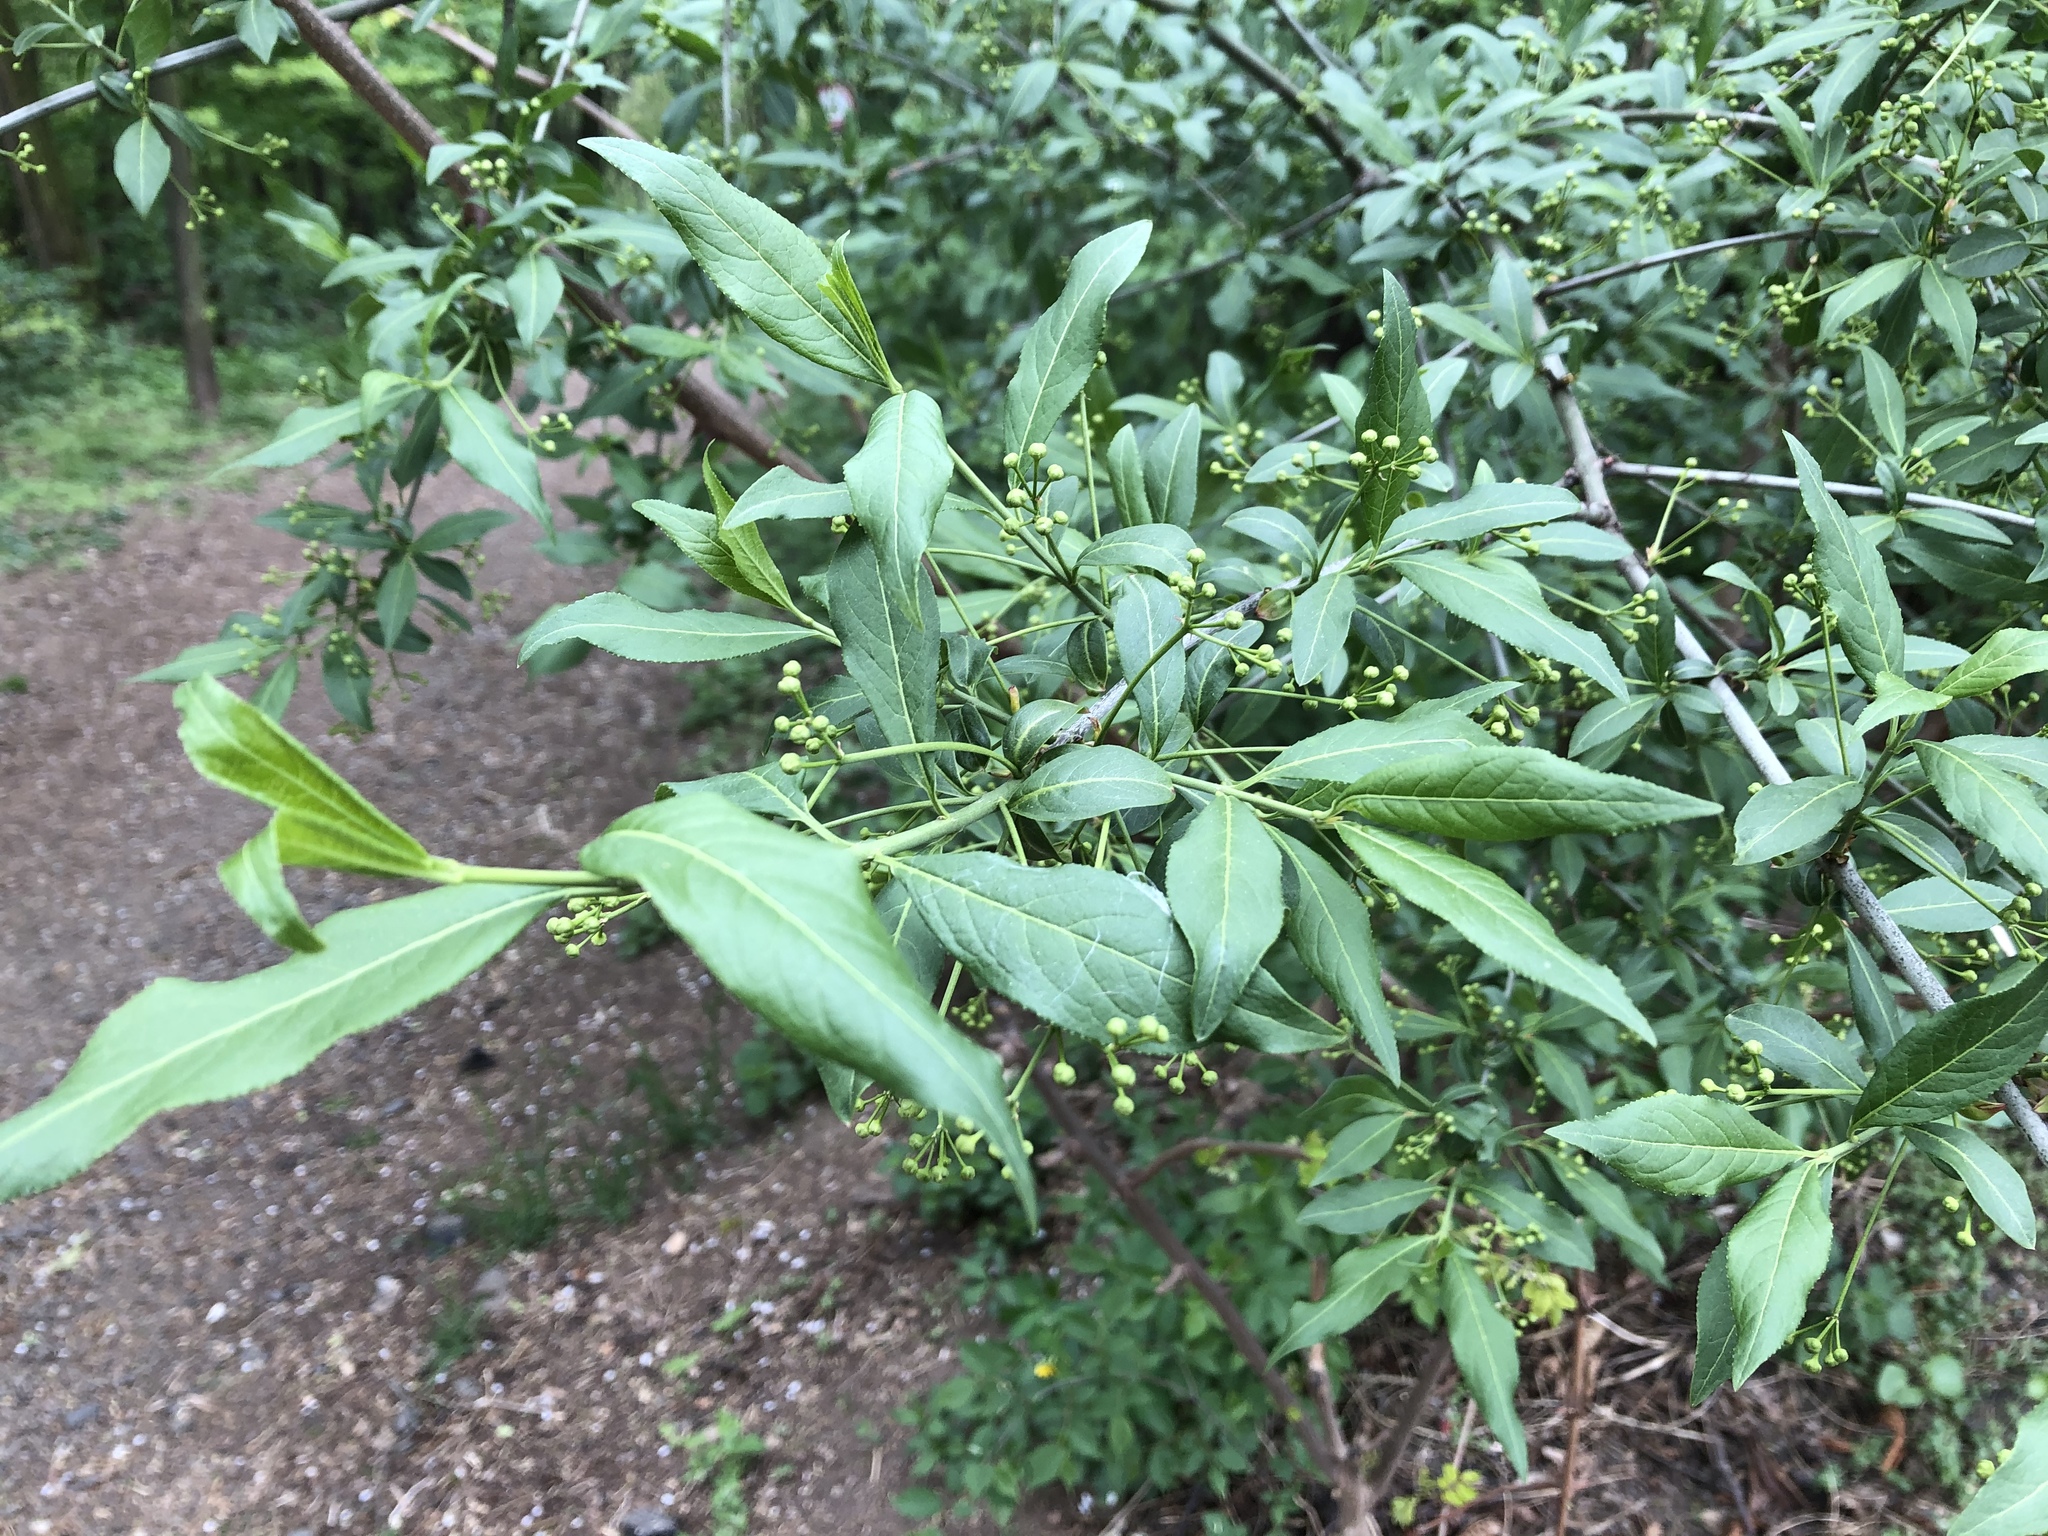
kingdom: Plantae
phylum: Tracheophyta
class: Magnoliopsida
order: Celastrales
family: Celastraceae
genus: Euonymus
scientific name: Euonymus europaeus
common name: Spindle
